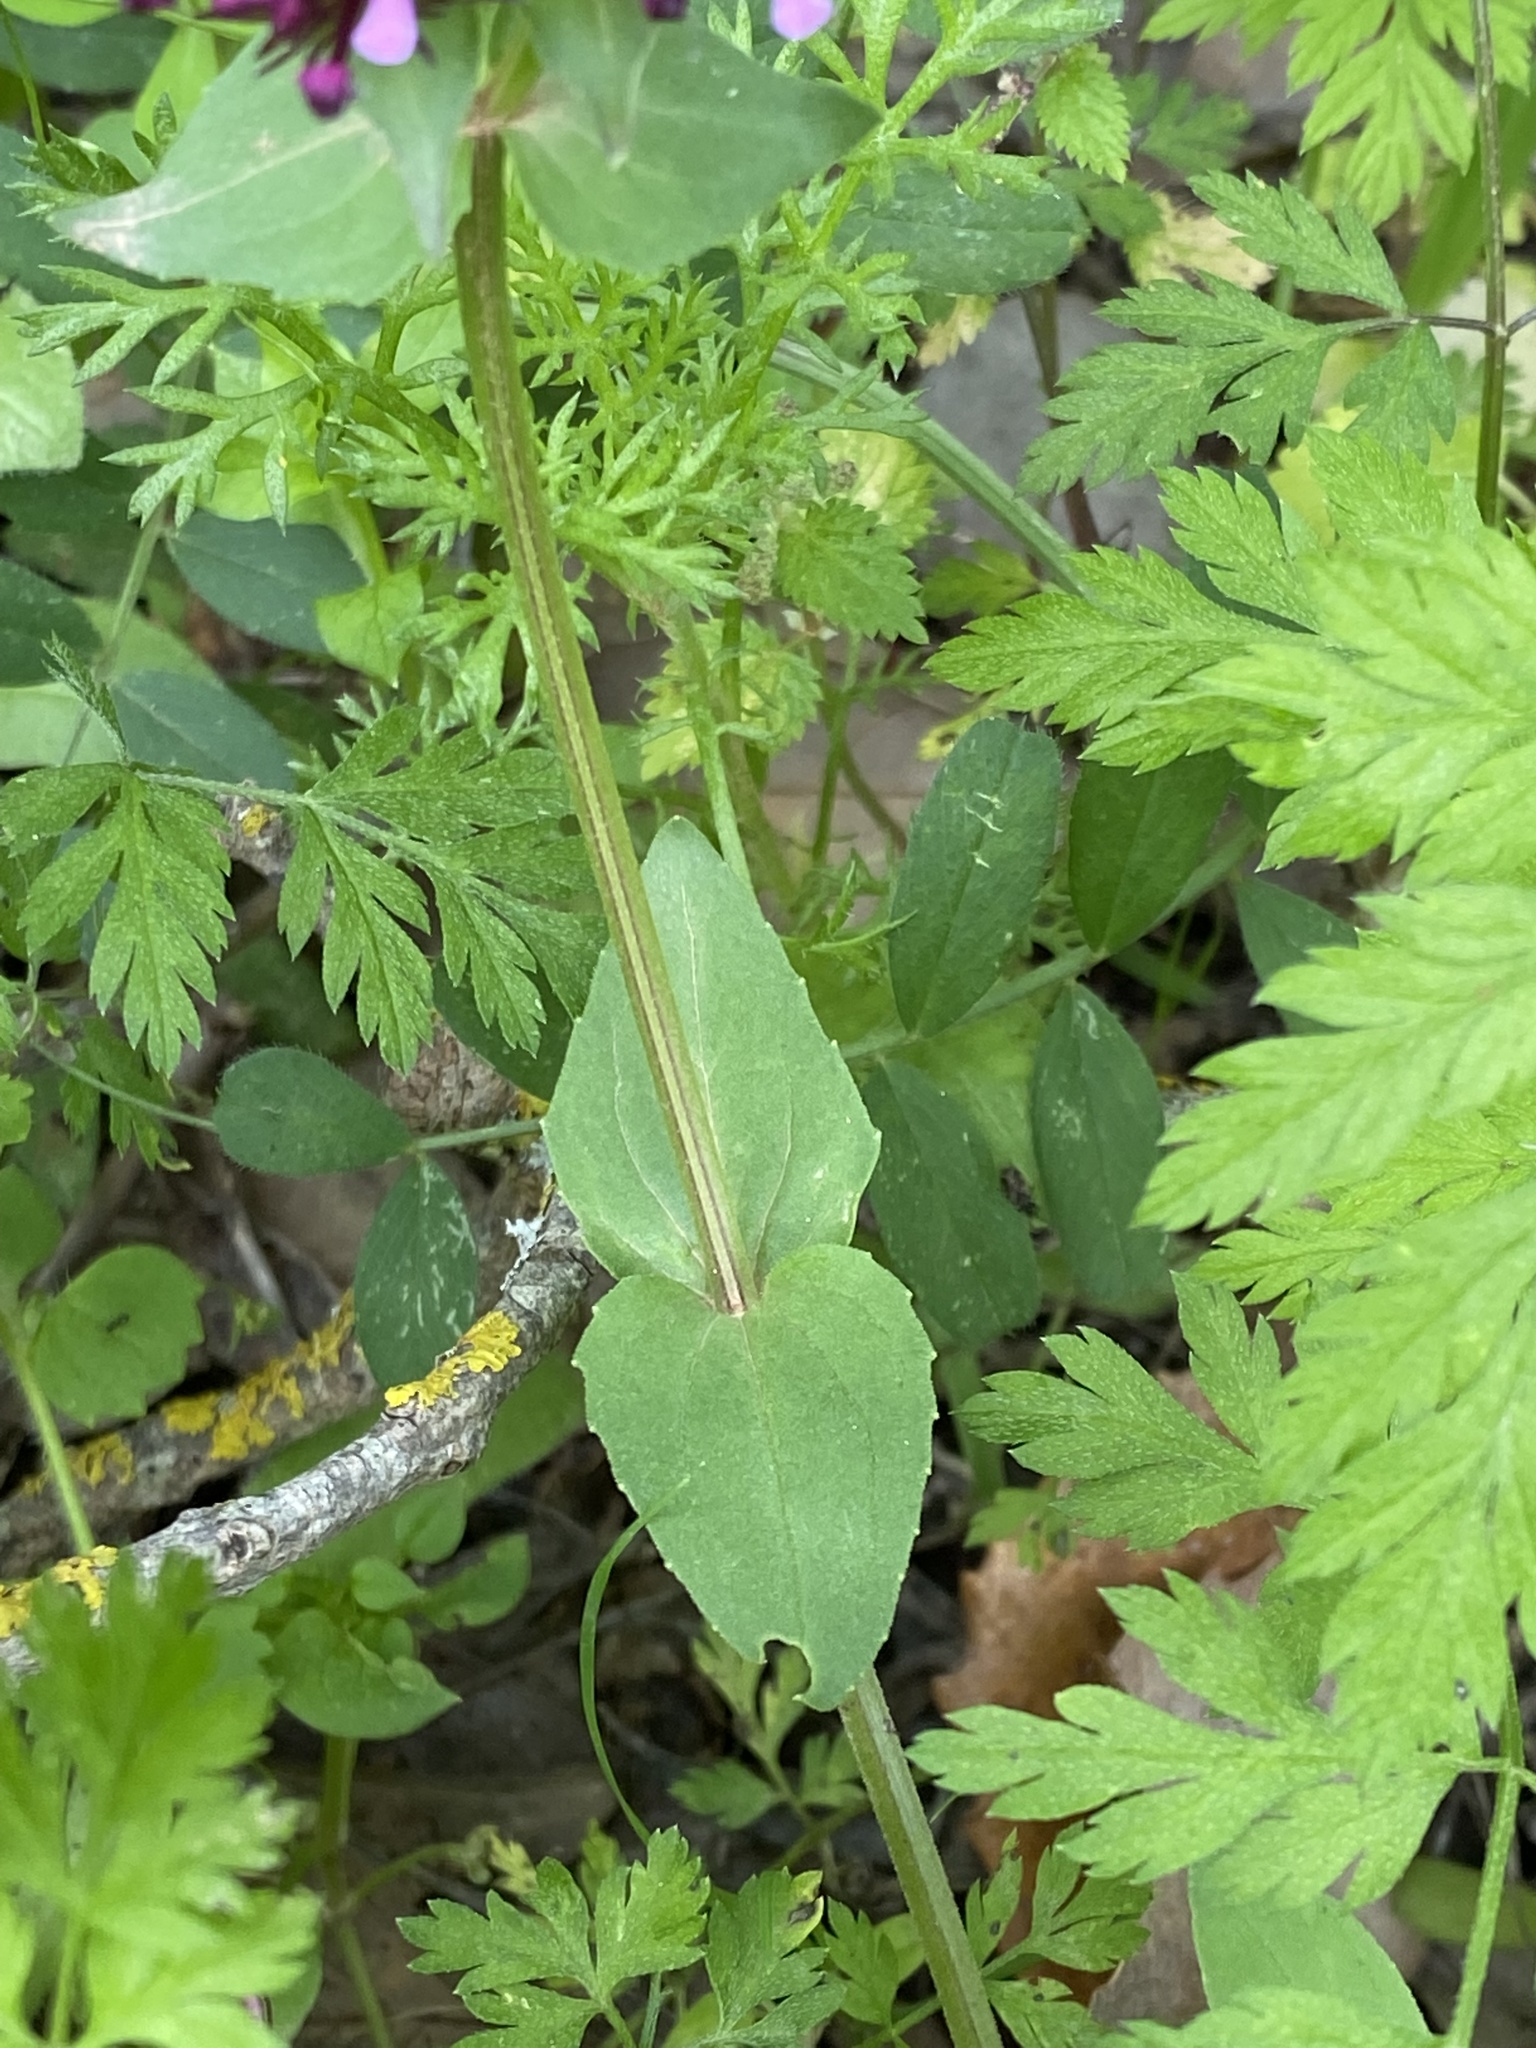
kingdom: Plantae
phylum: Tracheophyta
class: Magnoliopsida
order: Dipsacales
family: Caprifoliaceae
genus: Fedia
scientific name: Fedia cornucopiae
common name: Horn-of-plenty
